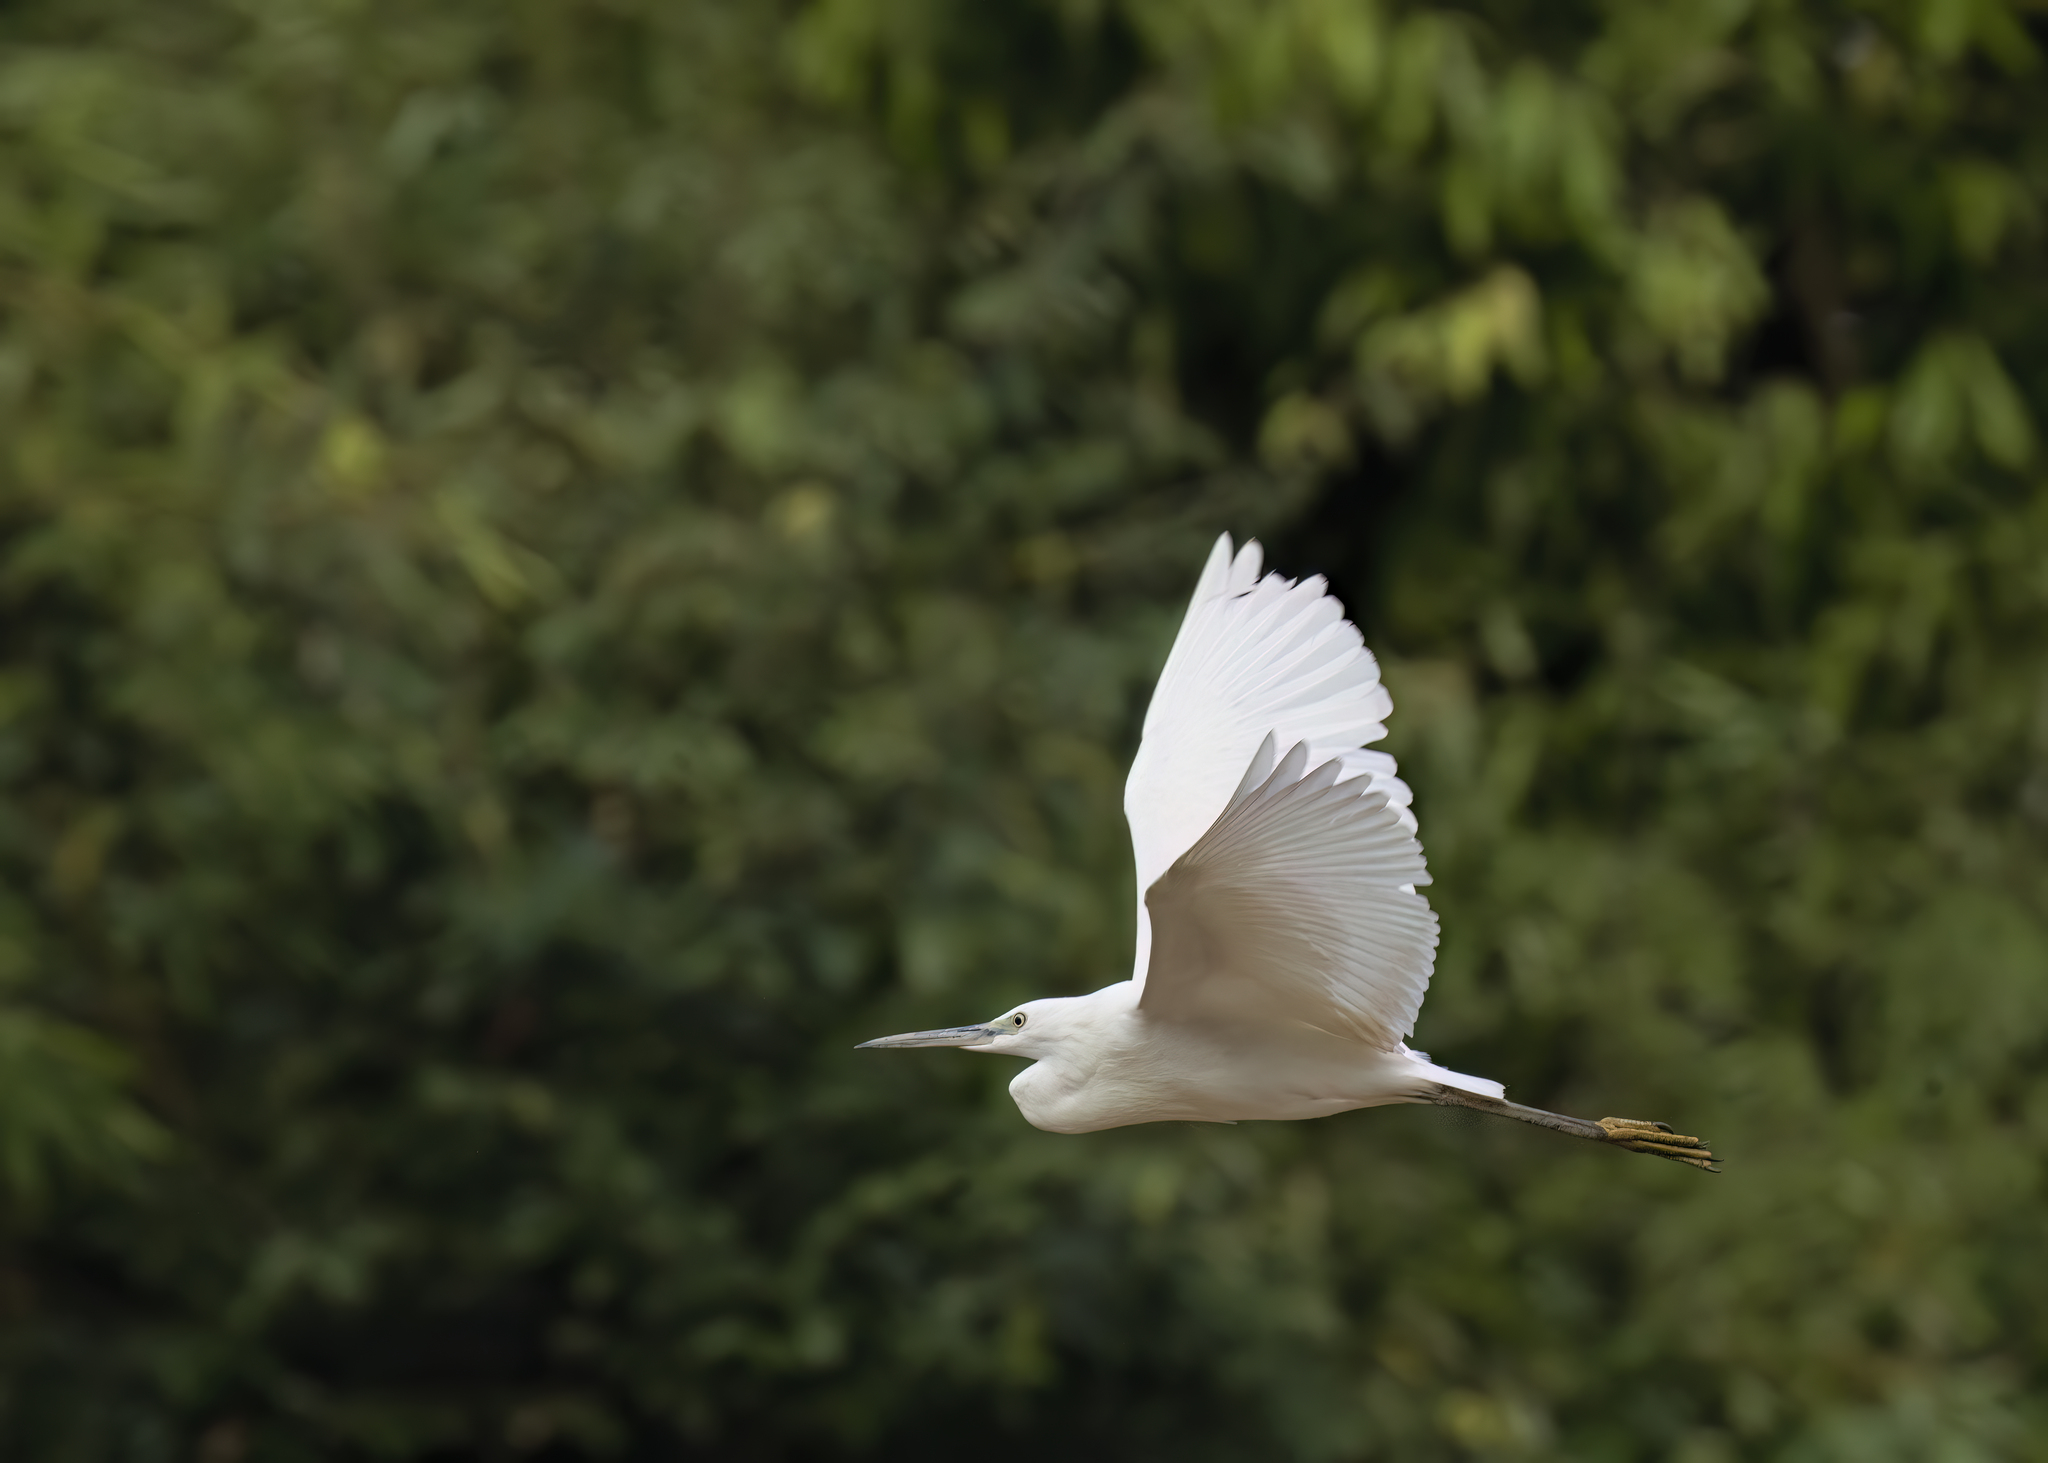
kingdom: Animalia
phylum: Chordata
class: Aves
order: Pelecaniformes
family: Ardeidae
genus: Egretta
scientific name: Egretta garzetta
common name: Little egret
